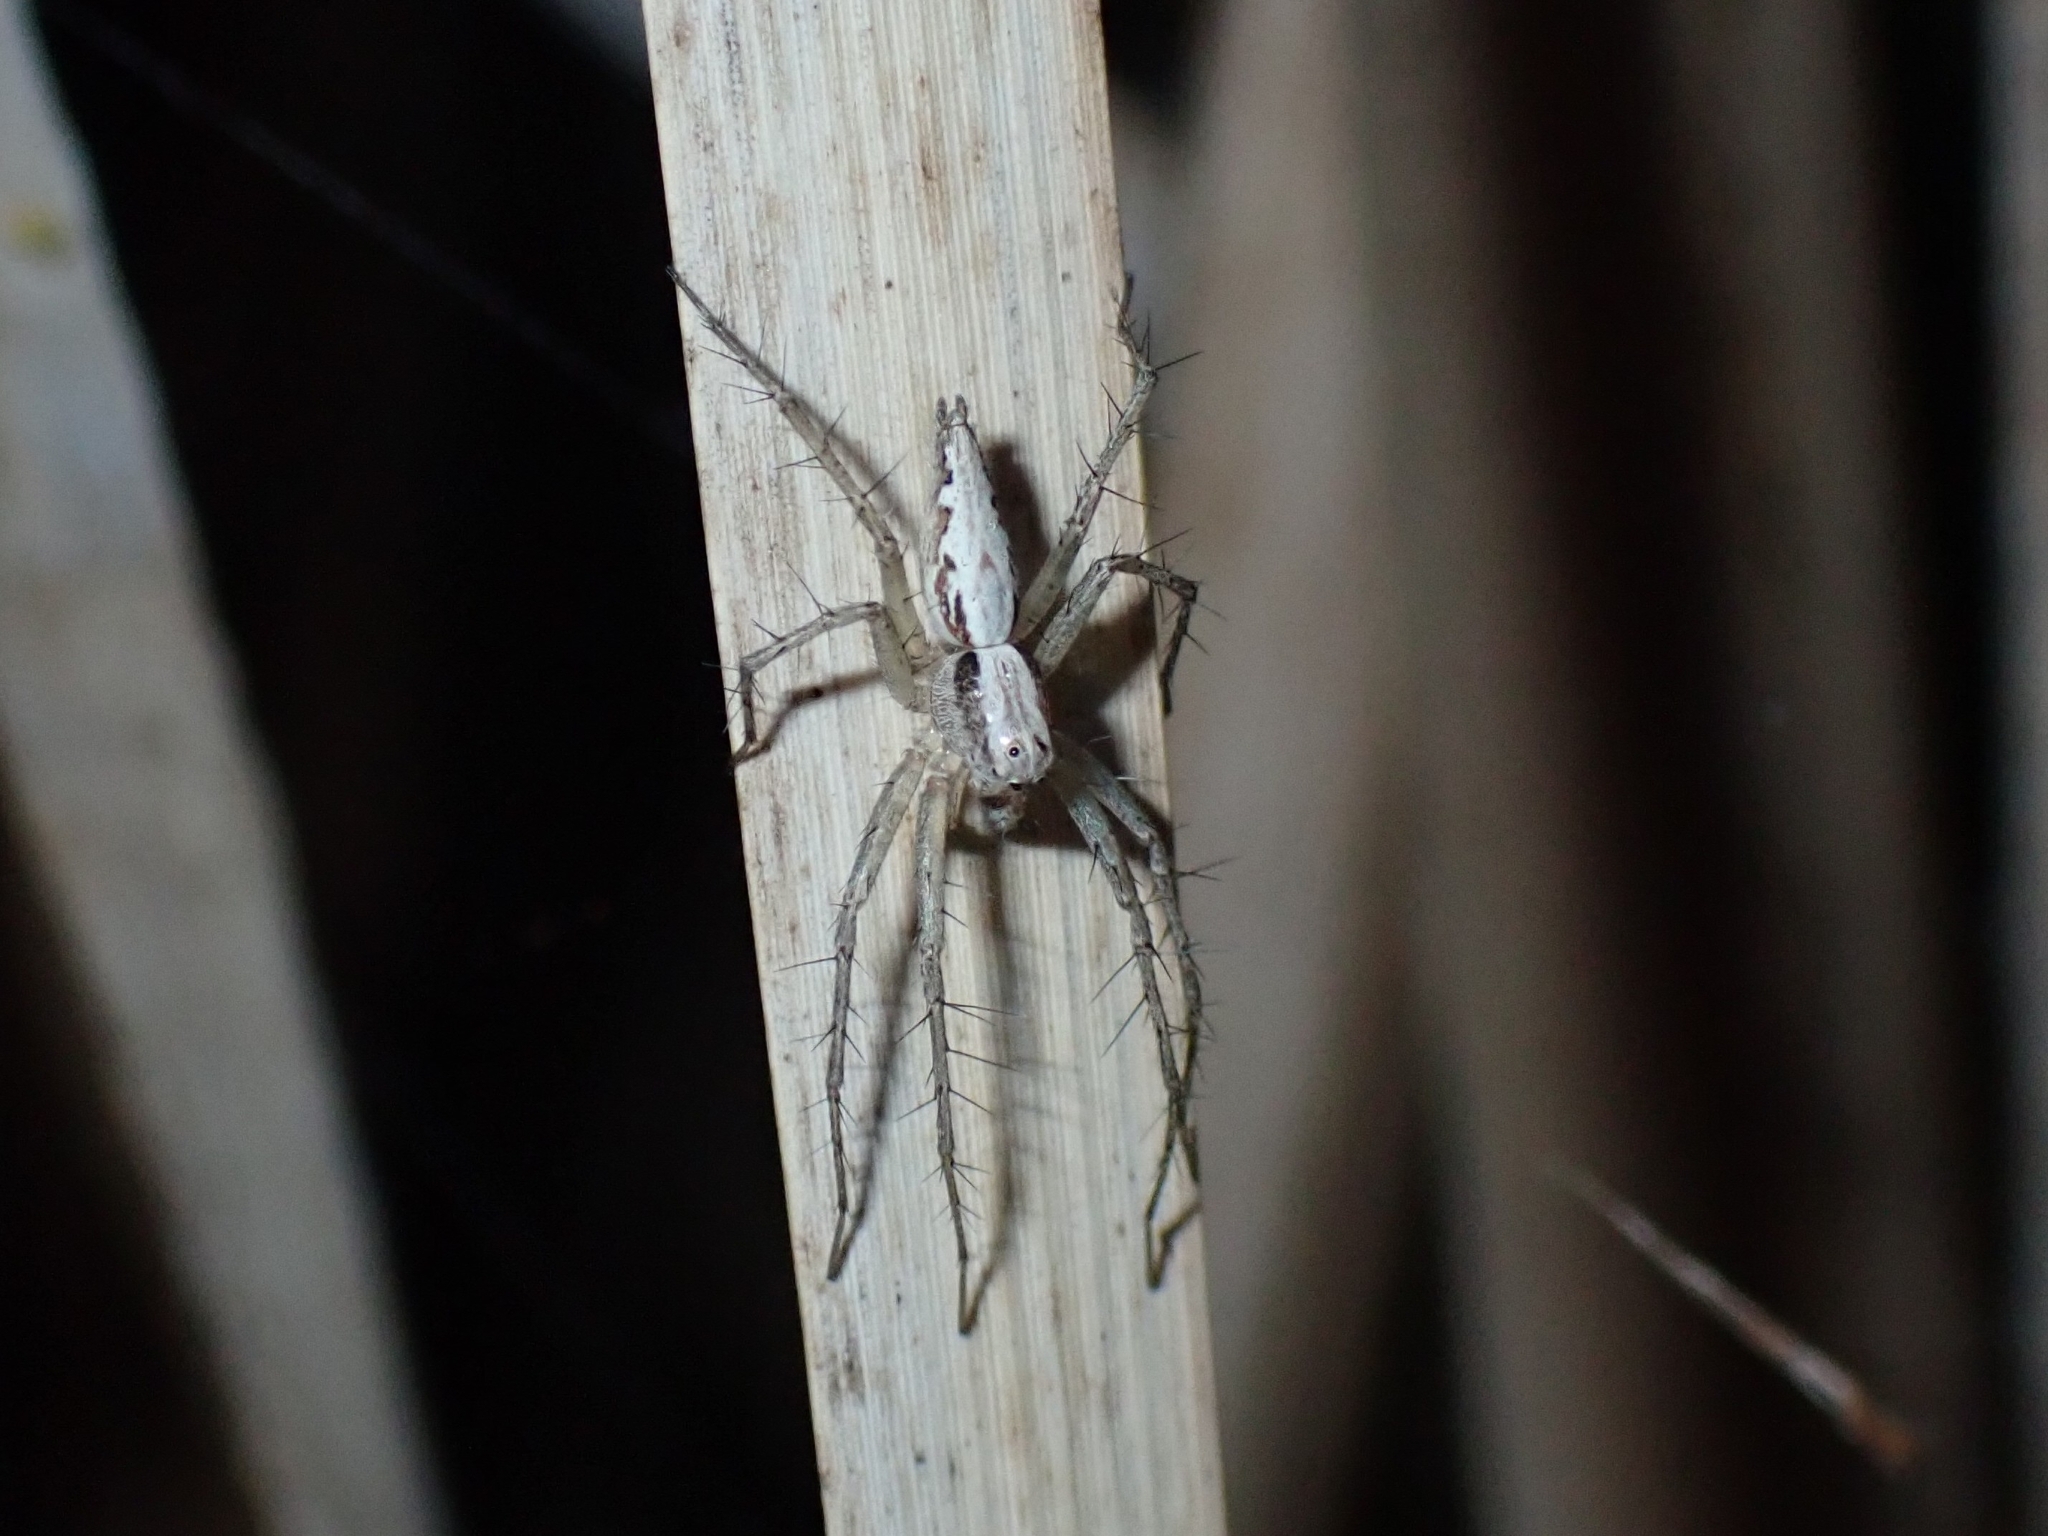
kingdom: Animalia
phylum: Arthropoda
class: Arachnida
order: Araneae
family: Oxyopidae
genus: Oxyopes
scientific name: Oxyopes kraepelinorum
